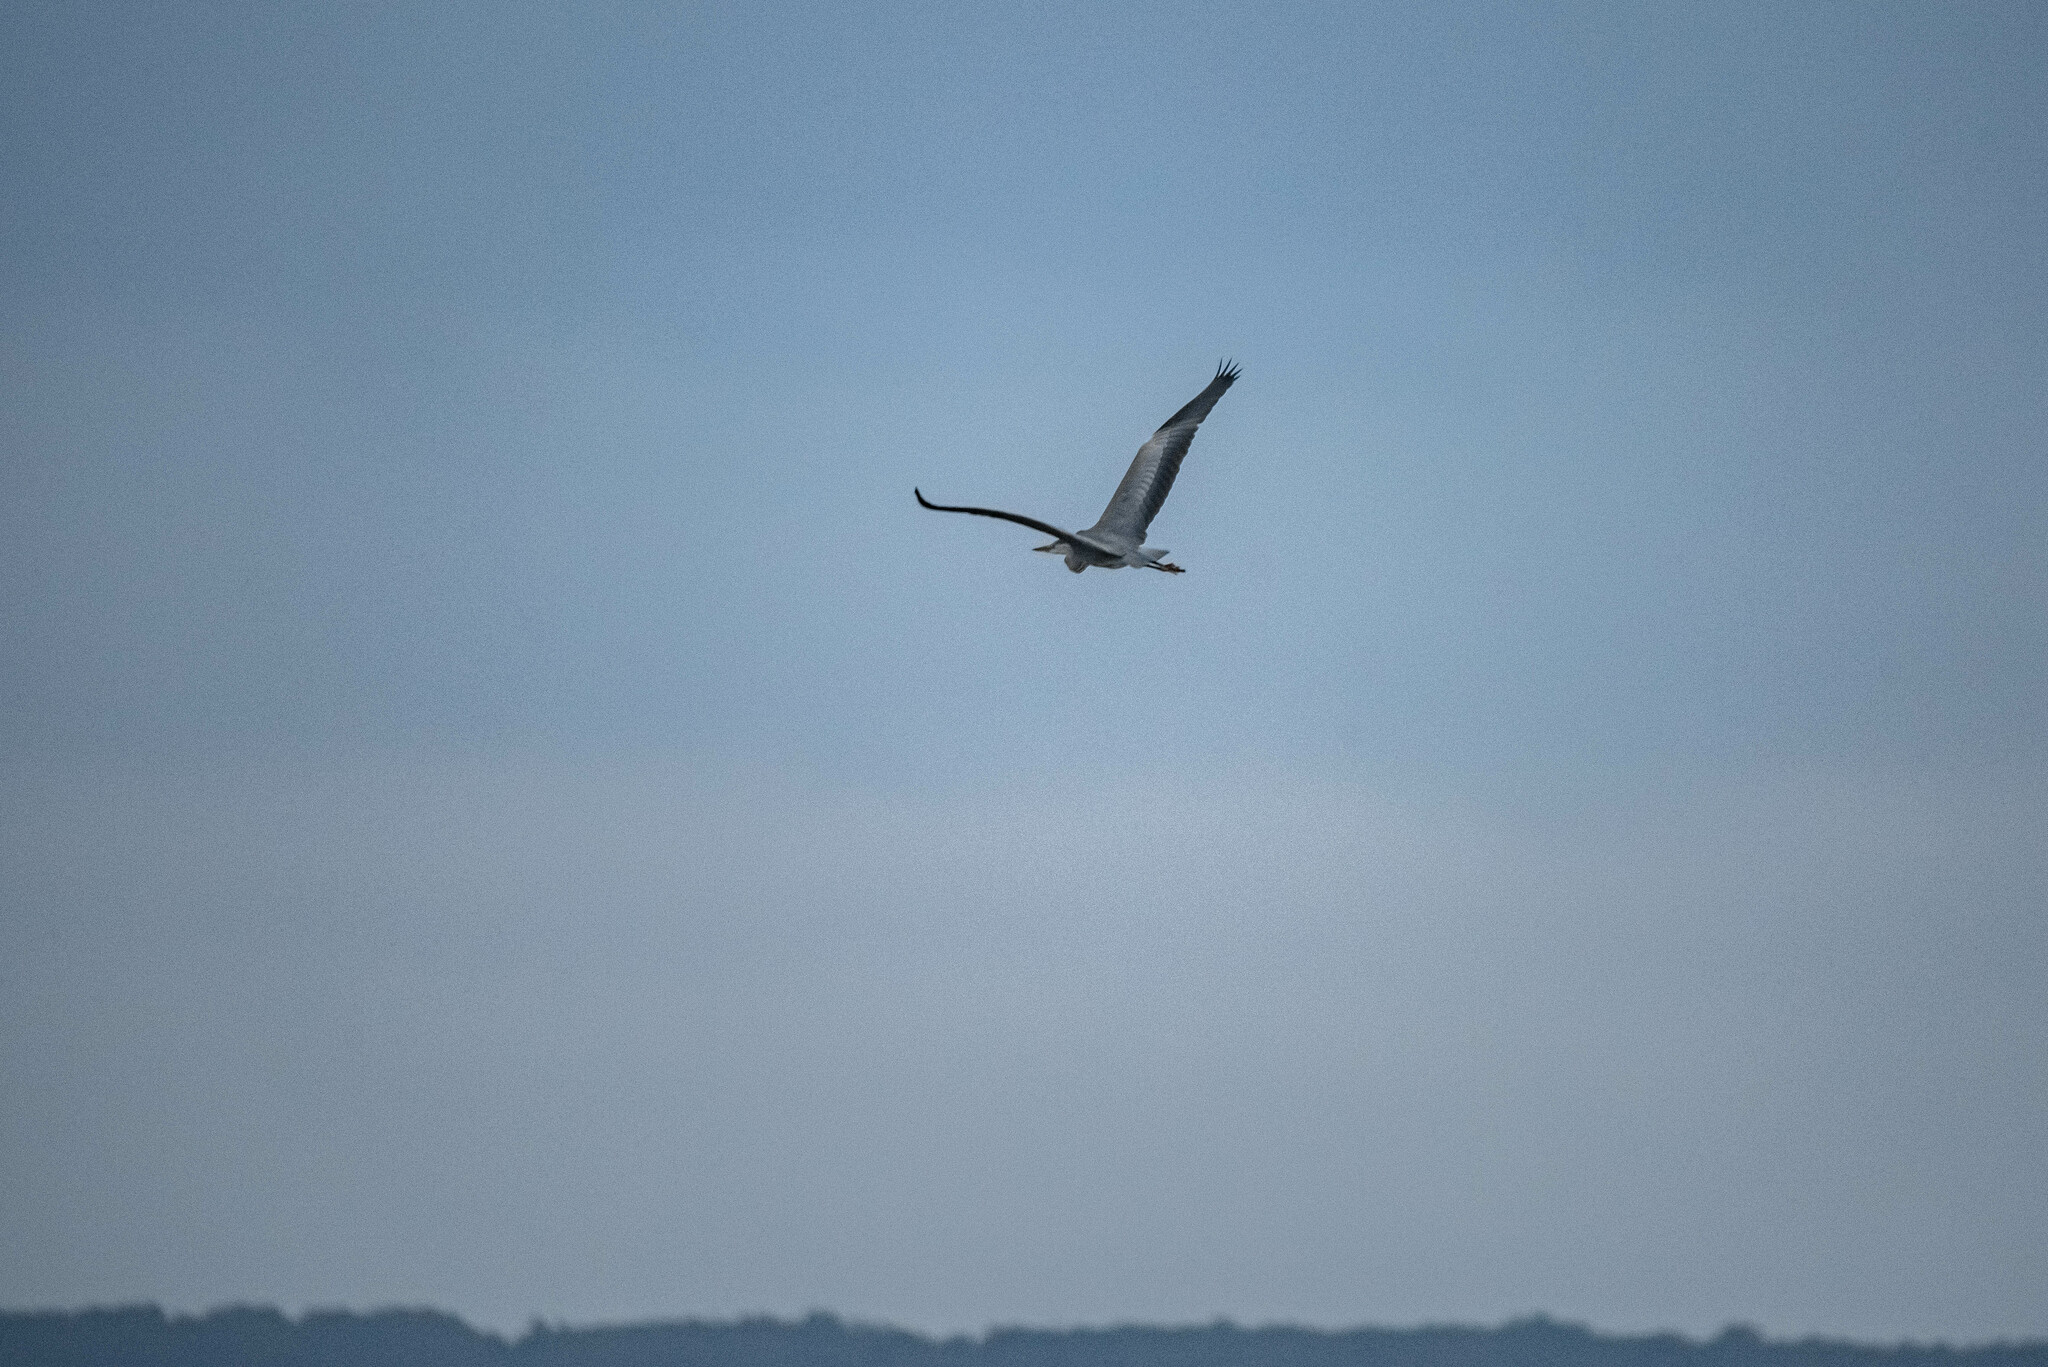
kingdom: Animalia
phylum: Chordata
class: Aves
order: Pelecaniformes
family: Ardeidae
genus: Ardea
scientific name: Ardea cinerea
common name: Grey heron
